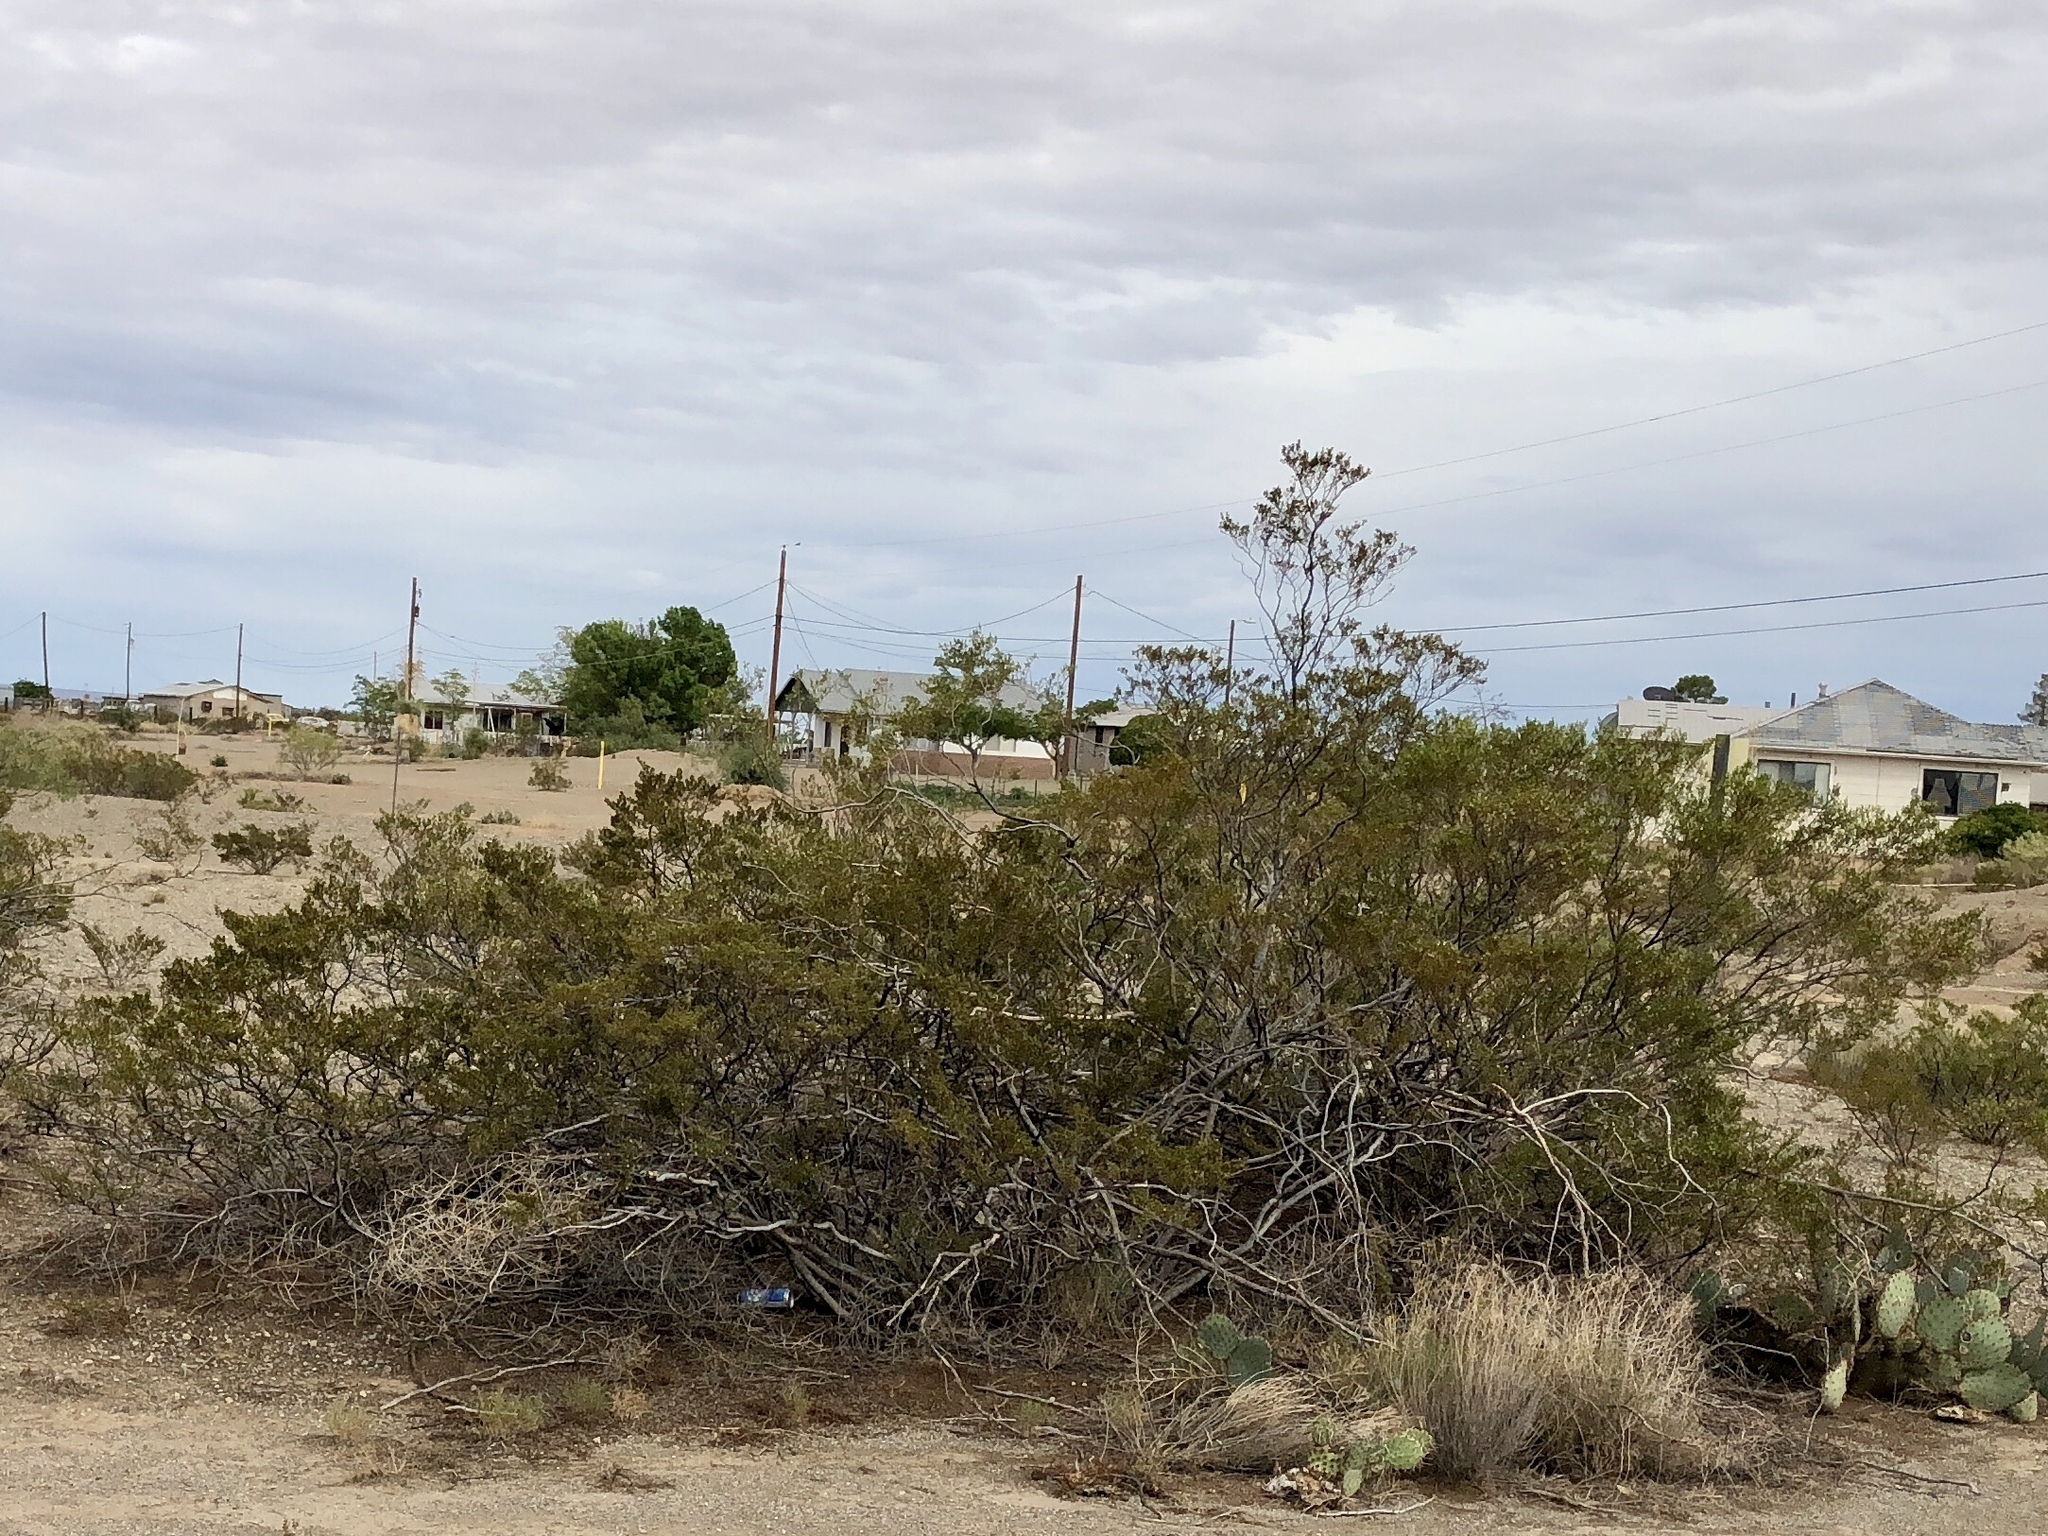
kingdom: Plantae
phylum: Tracheophyta
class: Magnoliopsida
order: Zygophyllales
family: Zygophyllaceae
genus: Larrea
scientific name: Larrea tridentata
